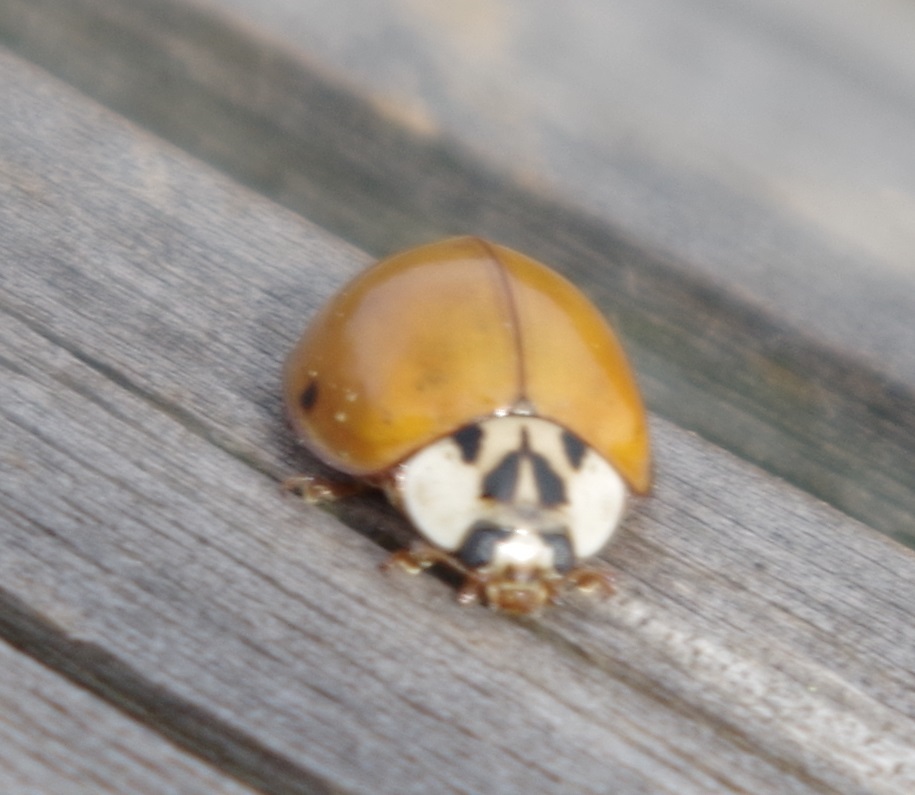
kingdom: Animalia
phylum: Arthropoda
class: Insecta
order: Coleoptera
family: Coccinellidae
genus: Harmonia
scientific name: Harmonia axyridis
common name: Harlequin ladybird
